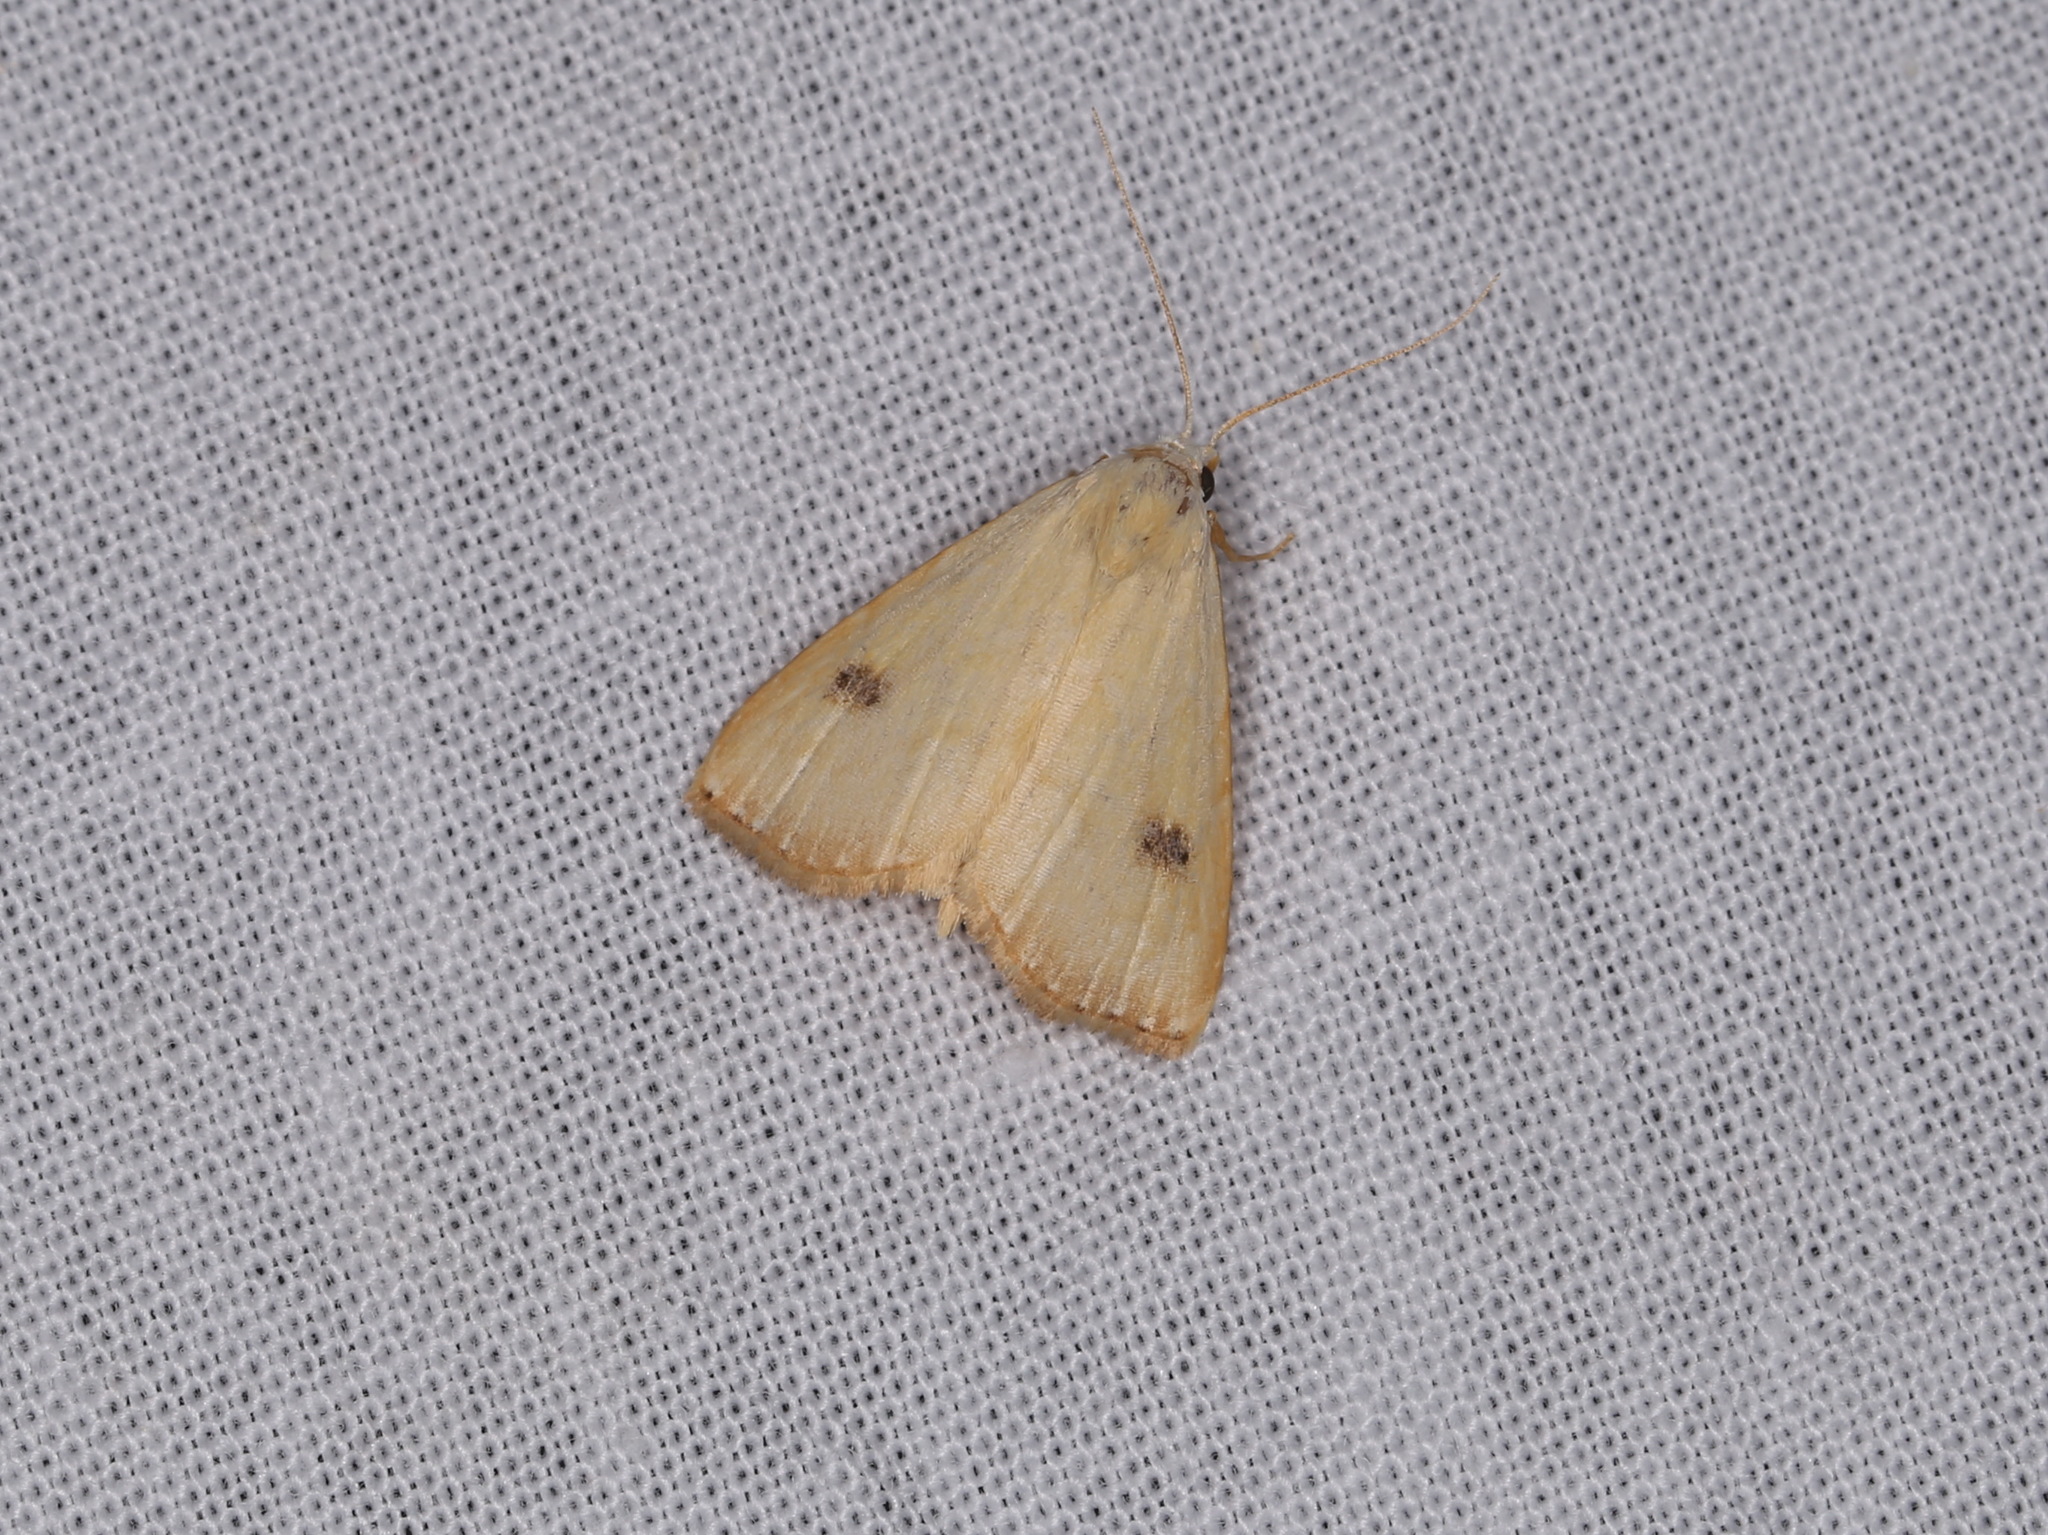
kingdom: Animalia
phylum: Arthropoda
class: Insecta
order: Lepidoptera
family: Erebidae
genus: Rivula
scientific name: Rivula sericealis
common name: Straw dot
